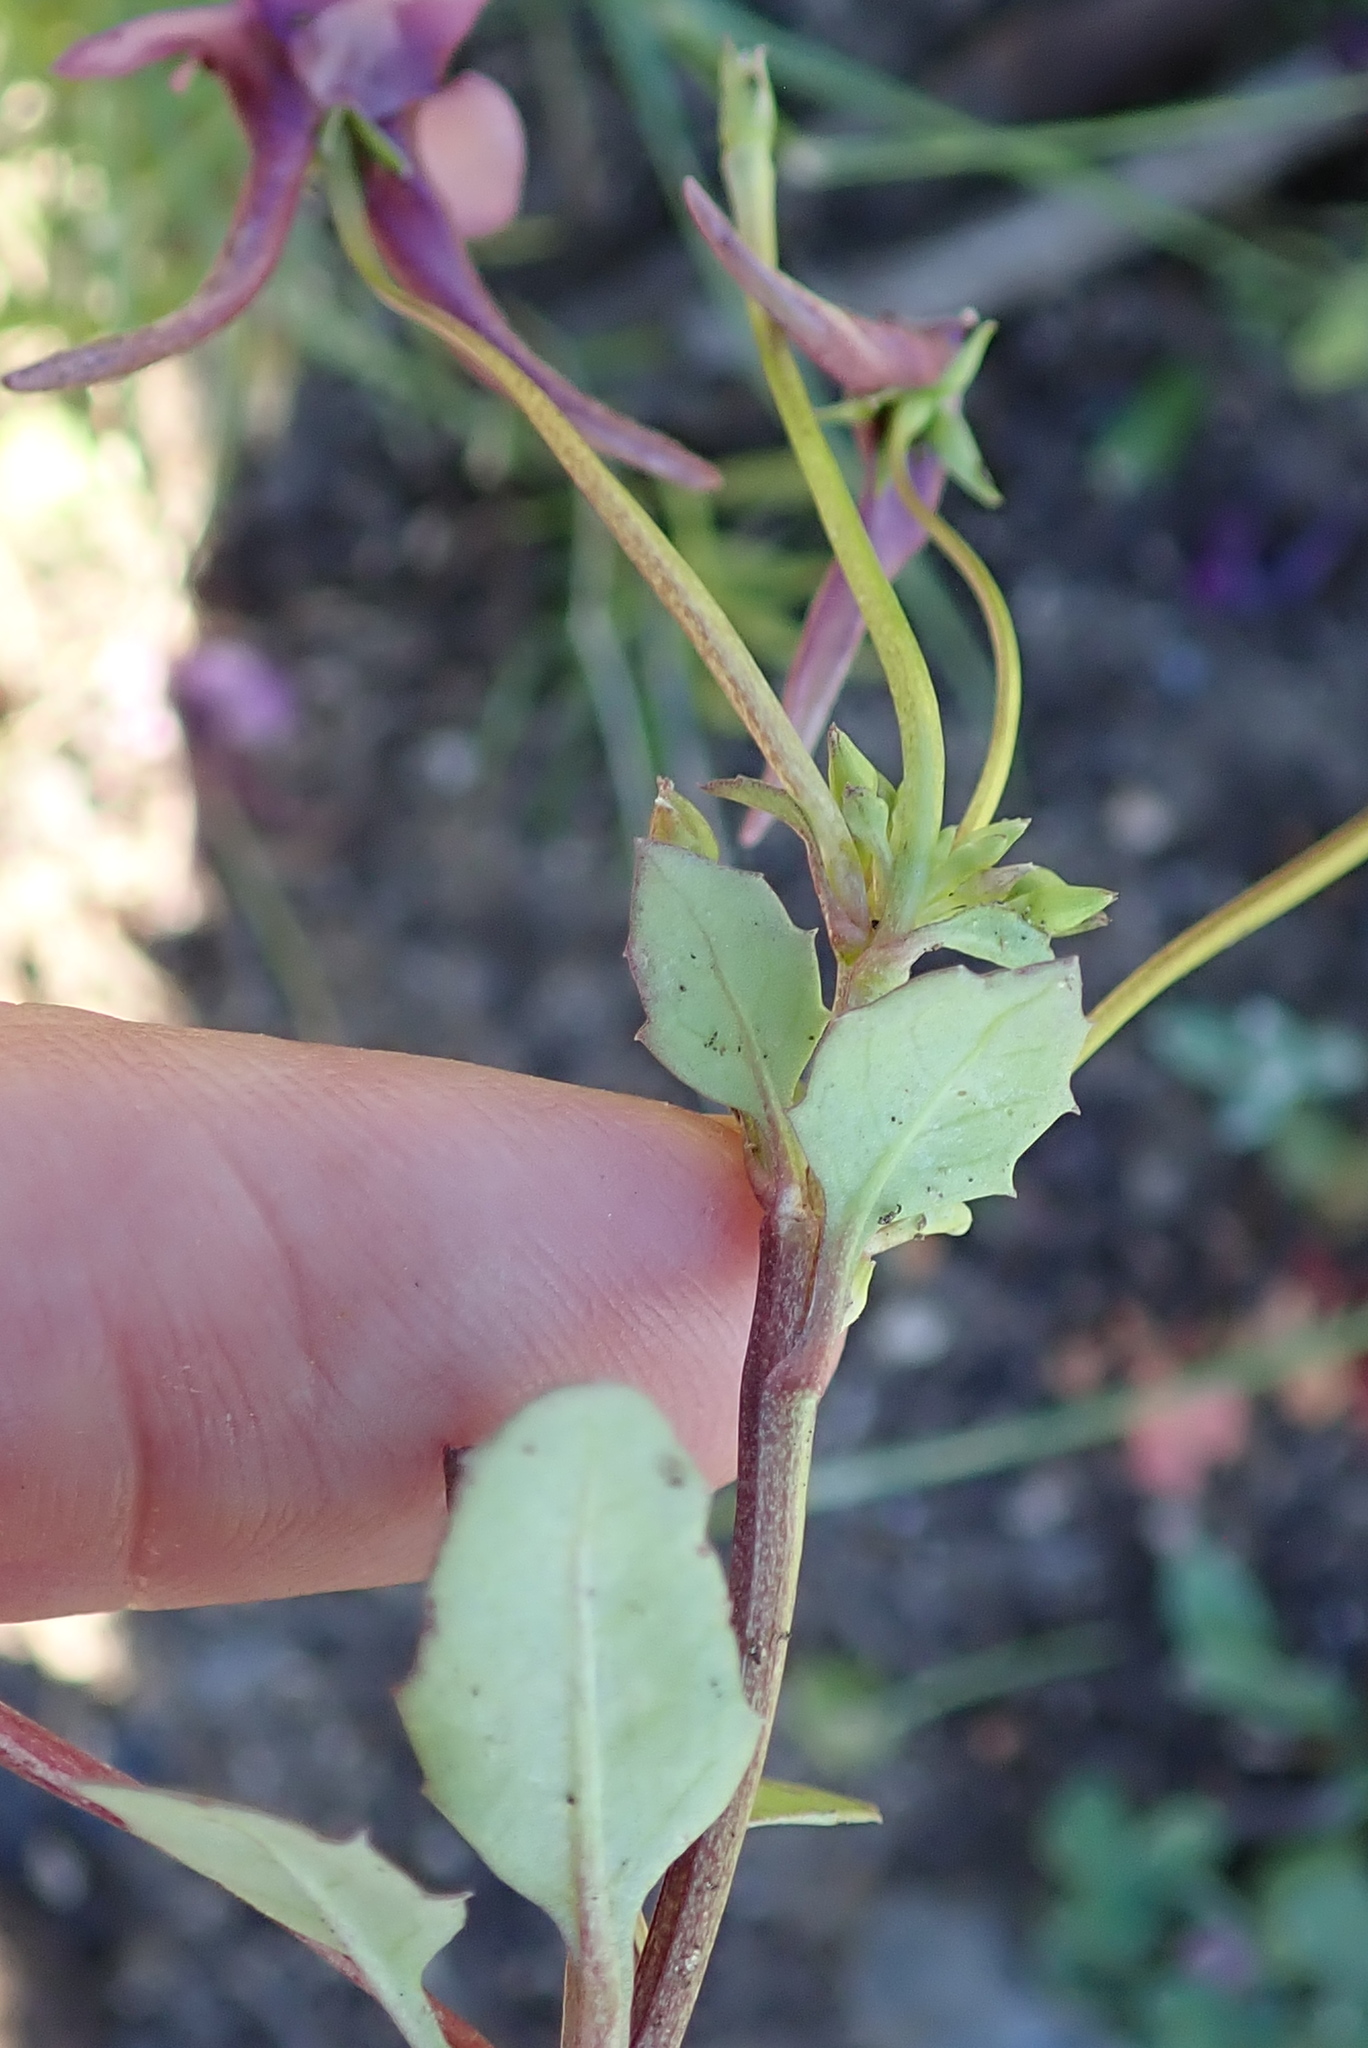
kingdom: Plantae
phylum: Tracheophyta
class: Magnoliopsida
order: Lamiales
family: Scrophulariaceae
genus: Diascia
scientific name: Diascia namaquensis
